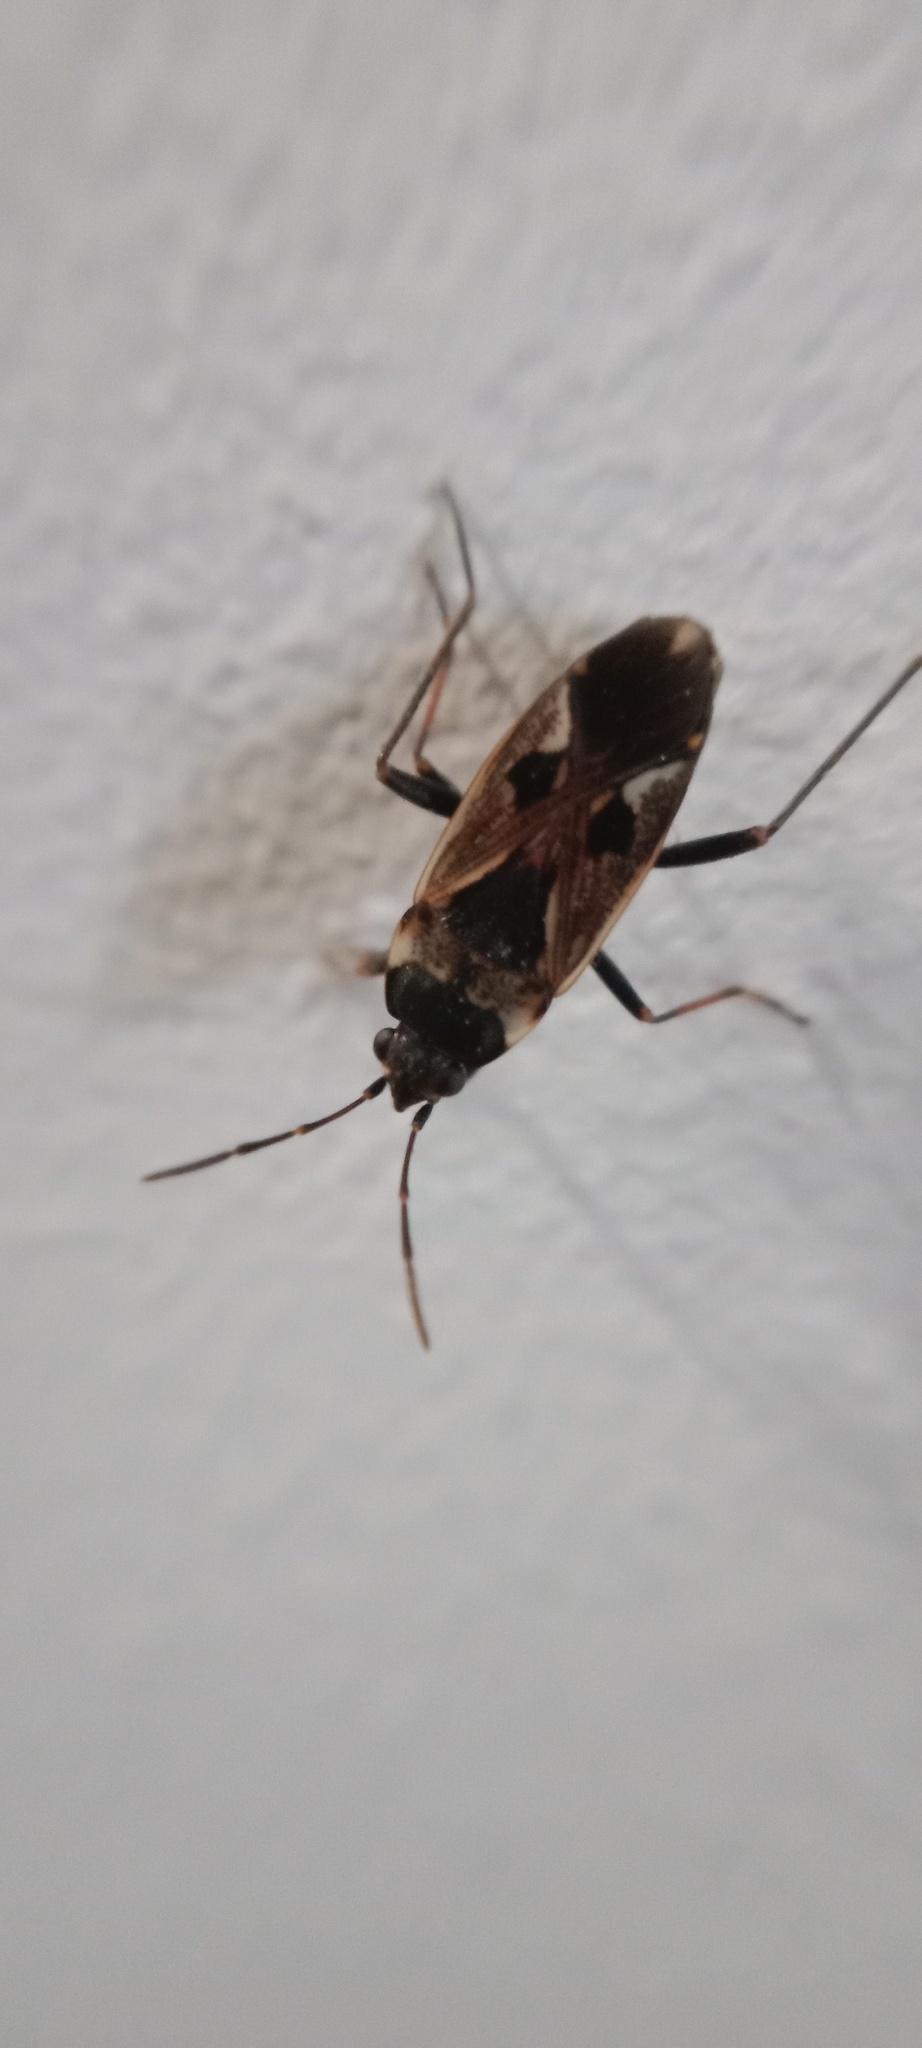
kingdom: Animalia
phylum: Arthropoda
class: Insecta
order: Hemiptera
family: Rhyparochromidae
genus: Rhyparochromus
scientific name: Rhyparochromus vulgaris
